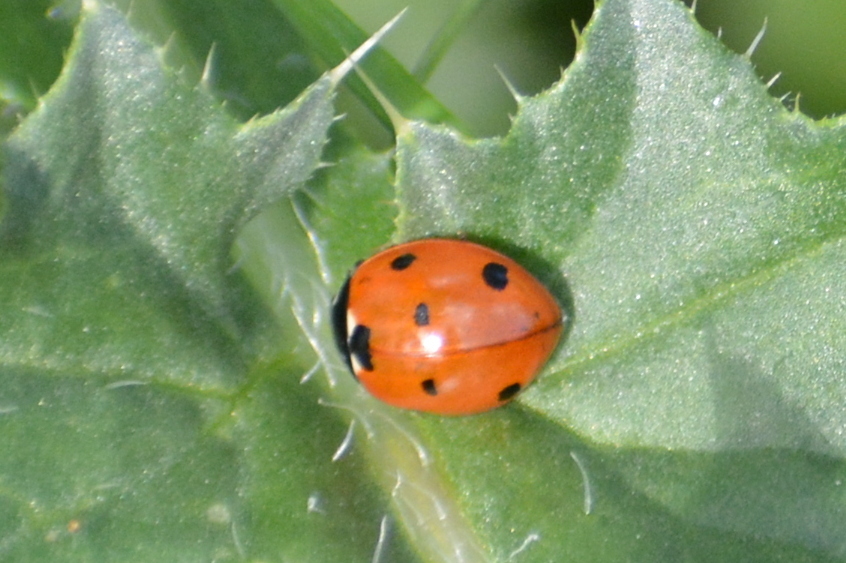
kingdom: Animalia
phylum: Arthropoda
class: Insecta
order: Coleoptera
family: Coccinellidae
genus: Coccinella
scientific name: Coccinella septempunctata
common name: Sevenspotted lady beetle
